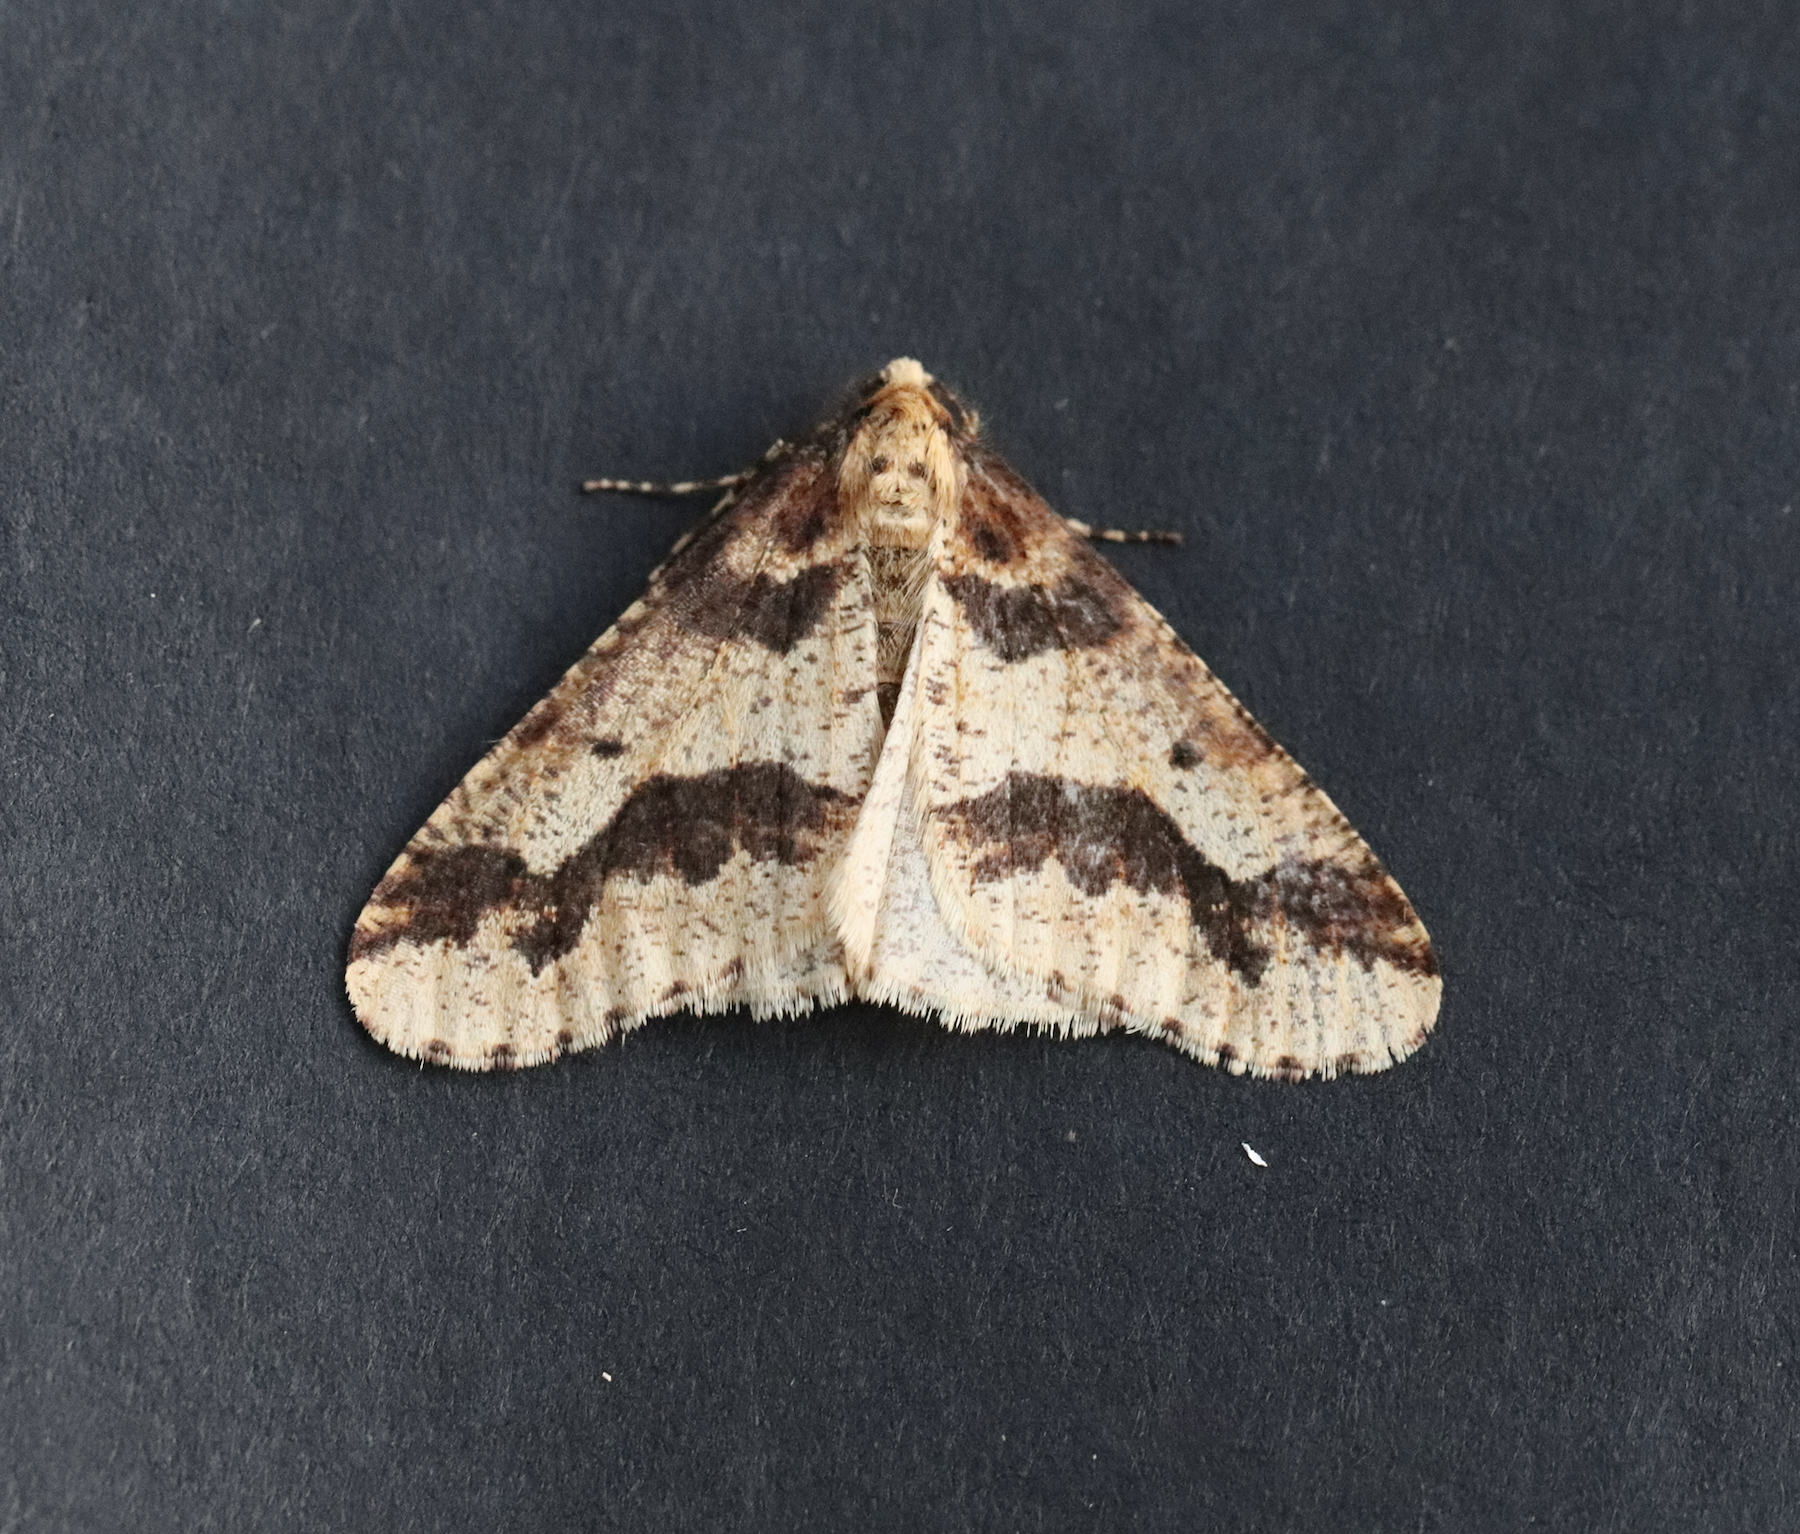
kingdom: Animalia
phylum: Arthropoda
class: Insecta
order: Lepidoptera
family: Geometridae
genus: Erannis
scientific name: Erannis defoliaria
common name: Mottled umber
